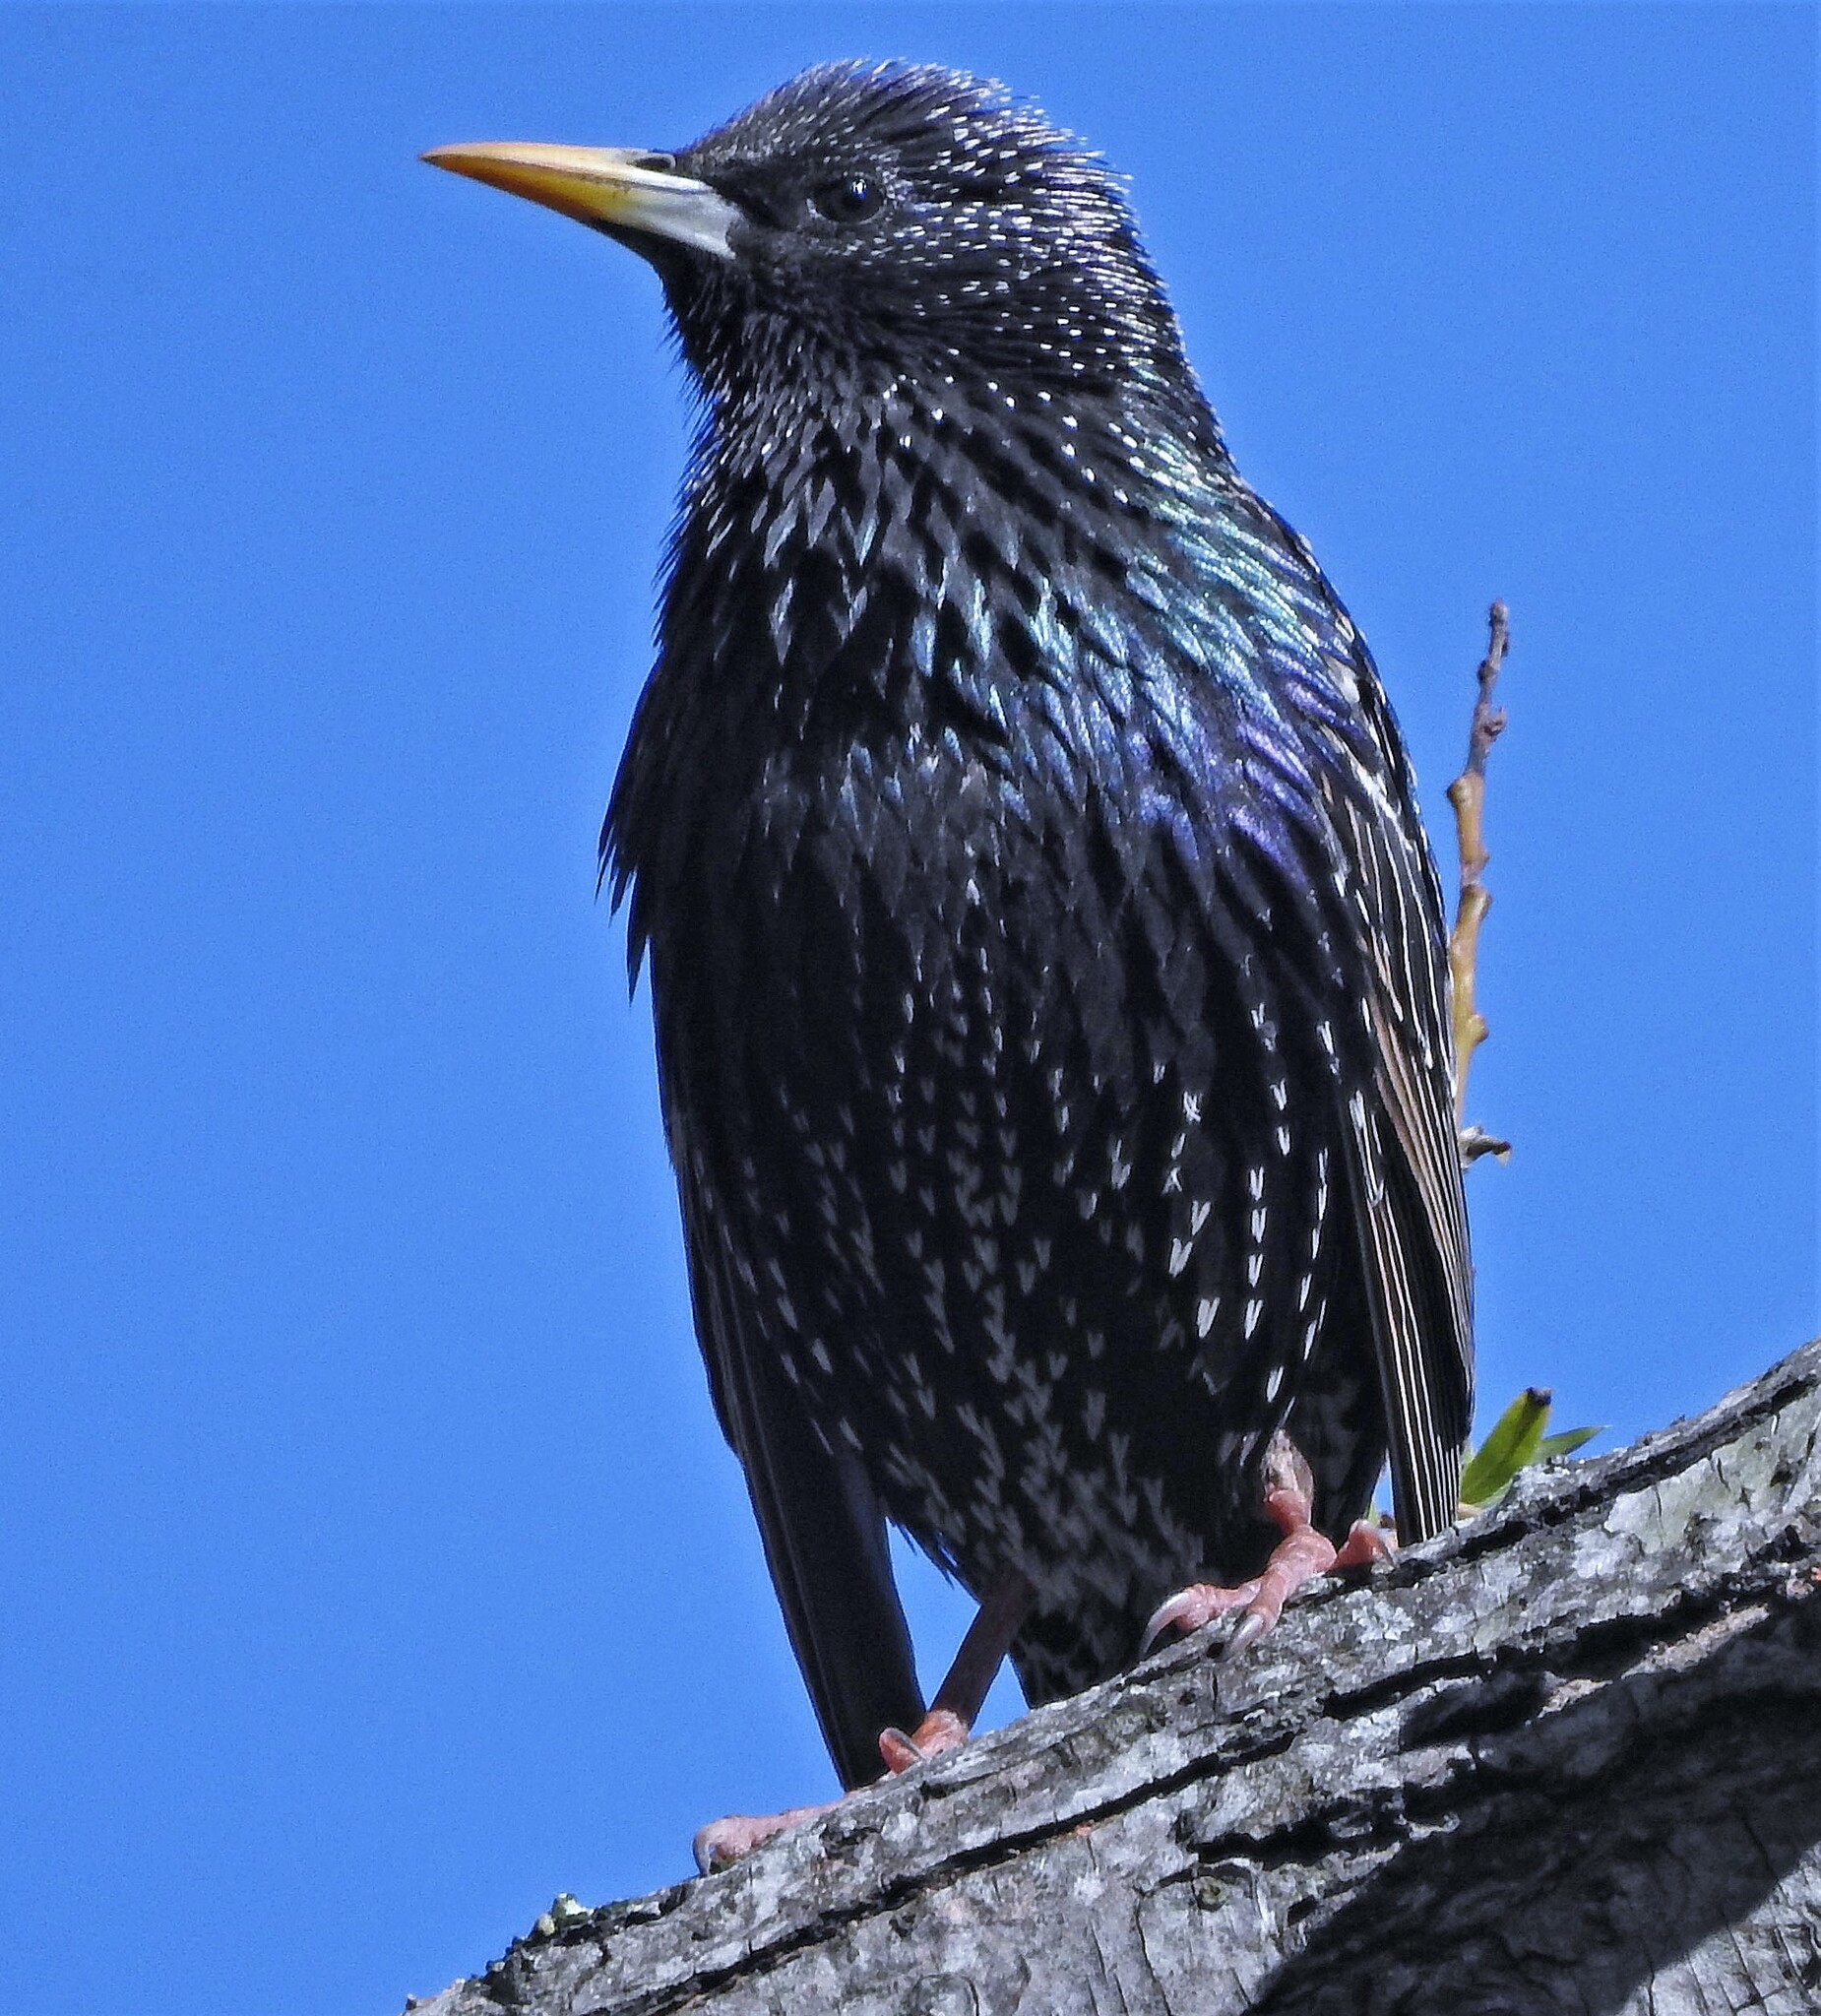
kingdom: Animalia
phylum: Chordata
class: Aves
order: Passeriformes
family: Sturnidae
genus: Sturnus
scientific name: Sturnus vulgaris
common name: Common starling
